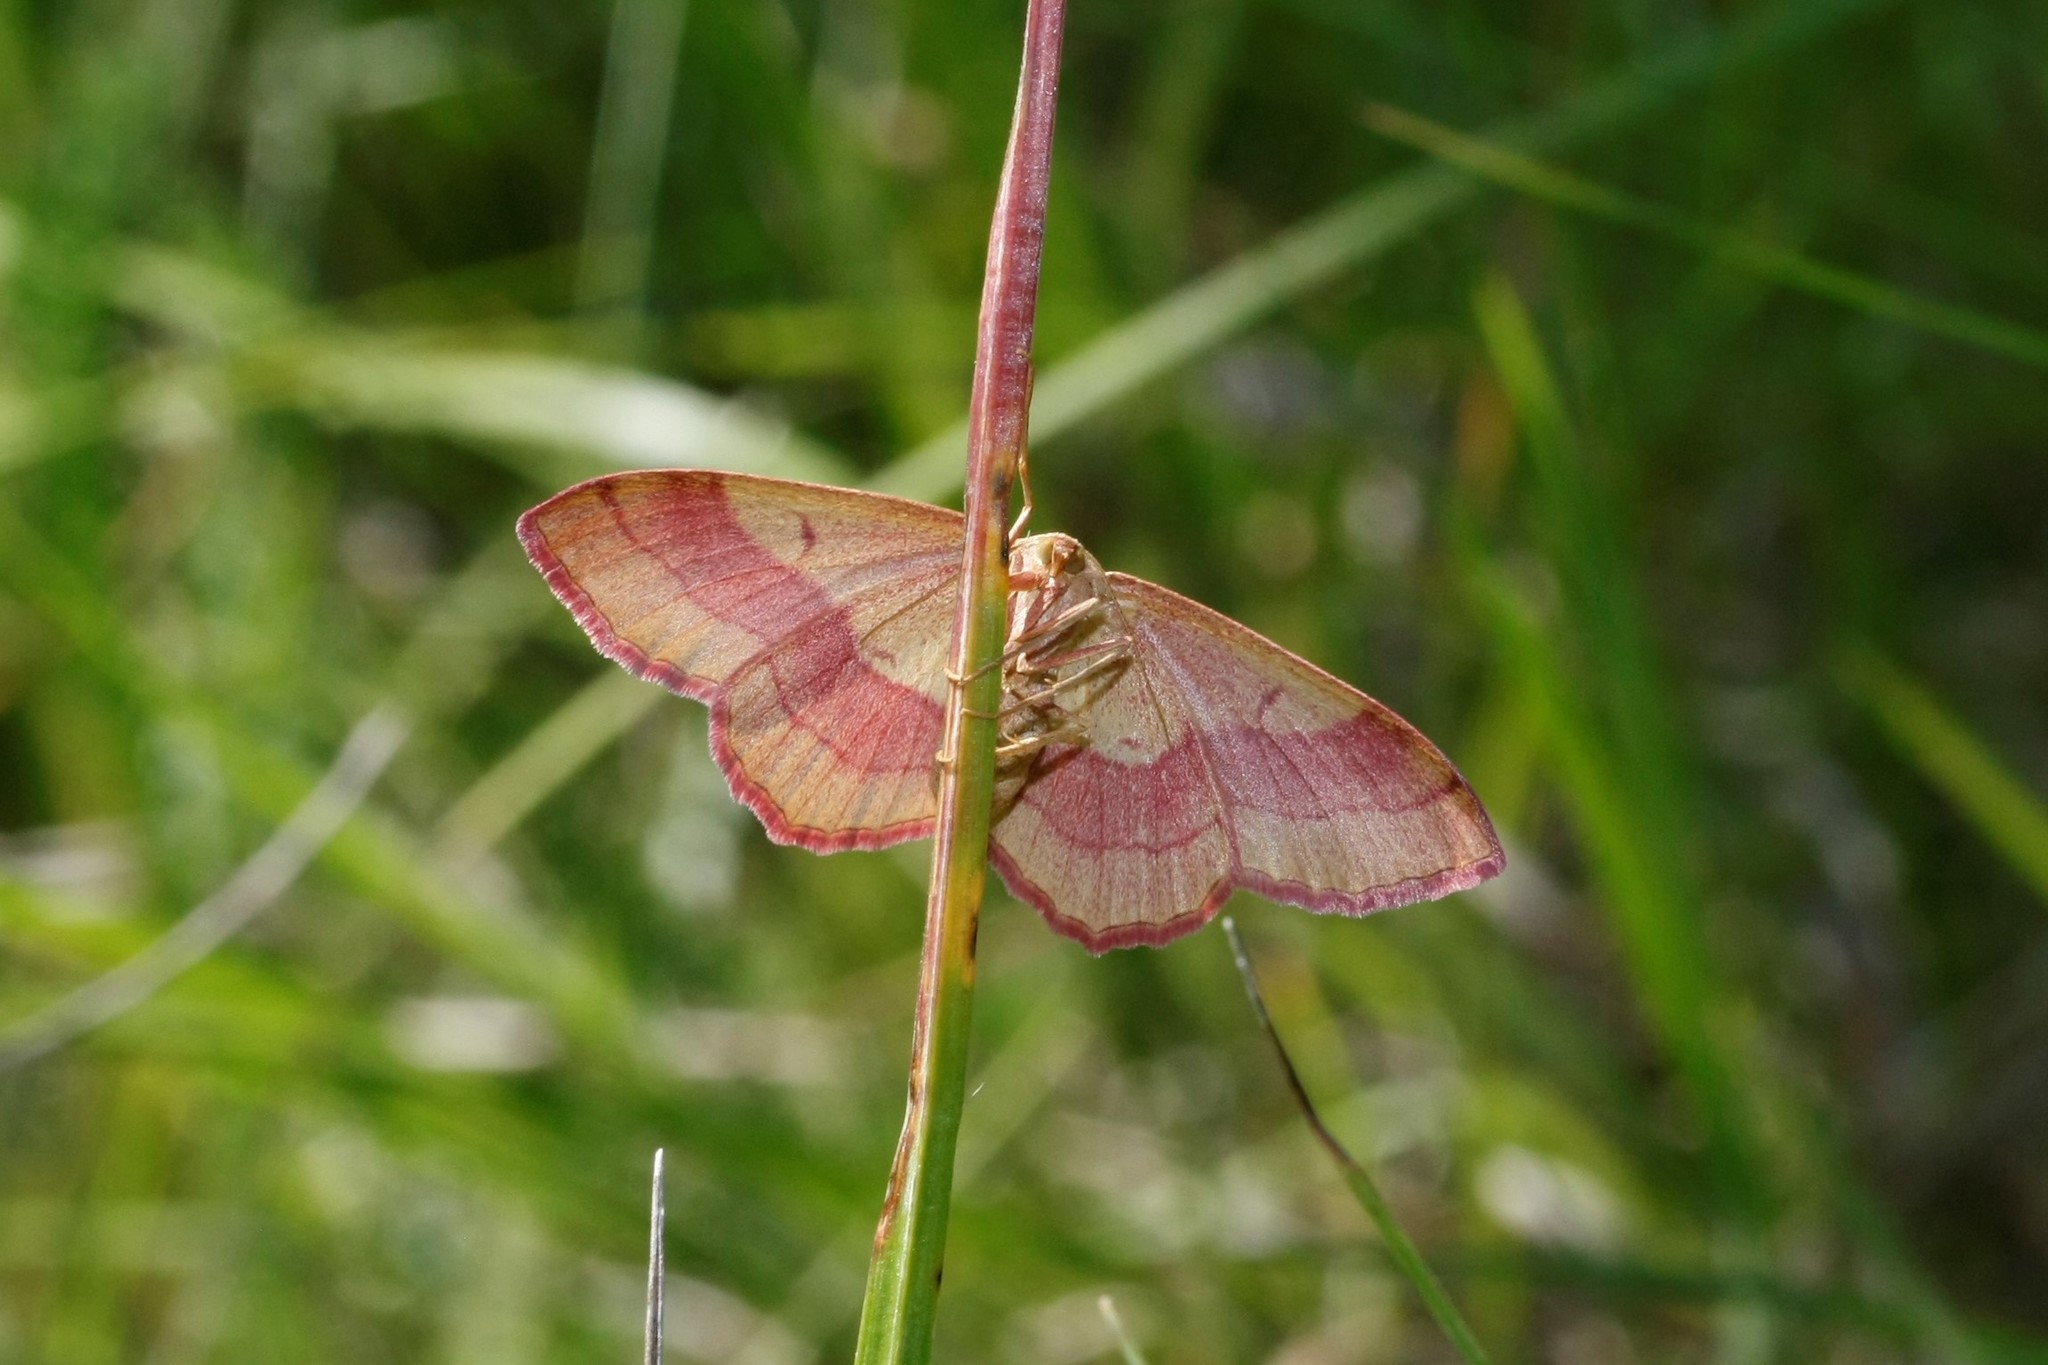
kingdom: Animalia
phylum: Arthropoda
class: Insecta
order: Lepidoptera
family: Geometridae
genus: Rhodostrophia
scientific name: Rhodostrophia vibicaria
